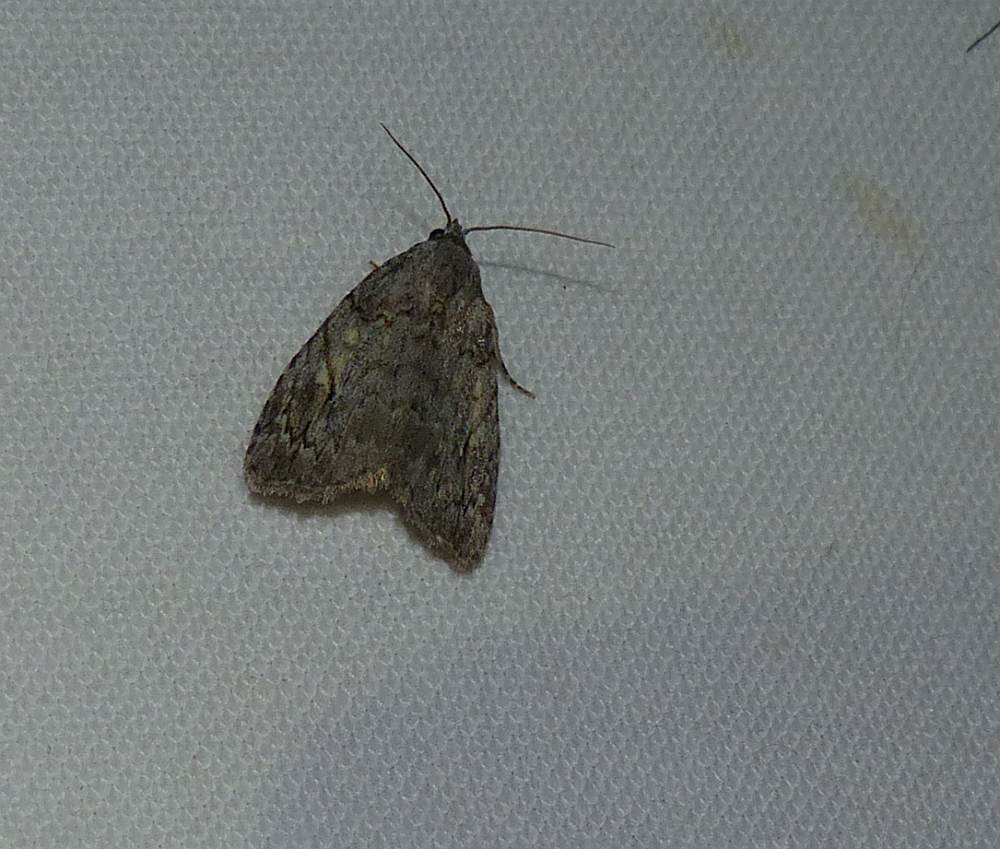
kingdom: Animalia
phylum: Arthropoda
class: Insecta
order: Lepidoptera
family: Noctuidae
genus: Balsa
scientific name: Balsa labecula
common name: White-blotched balsa moth
